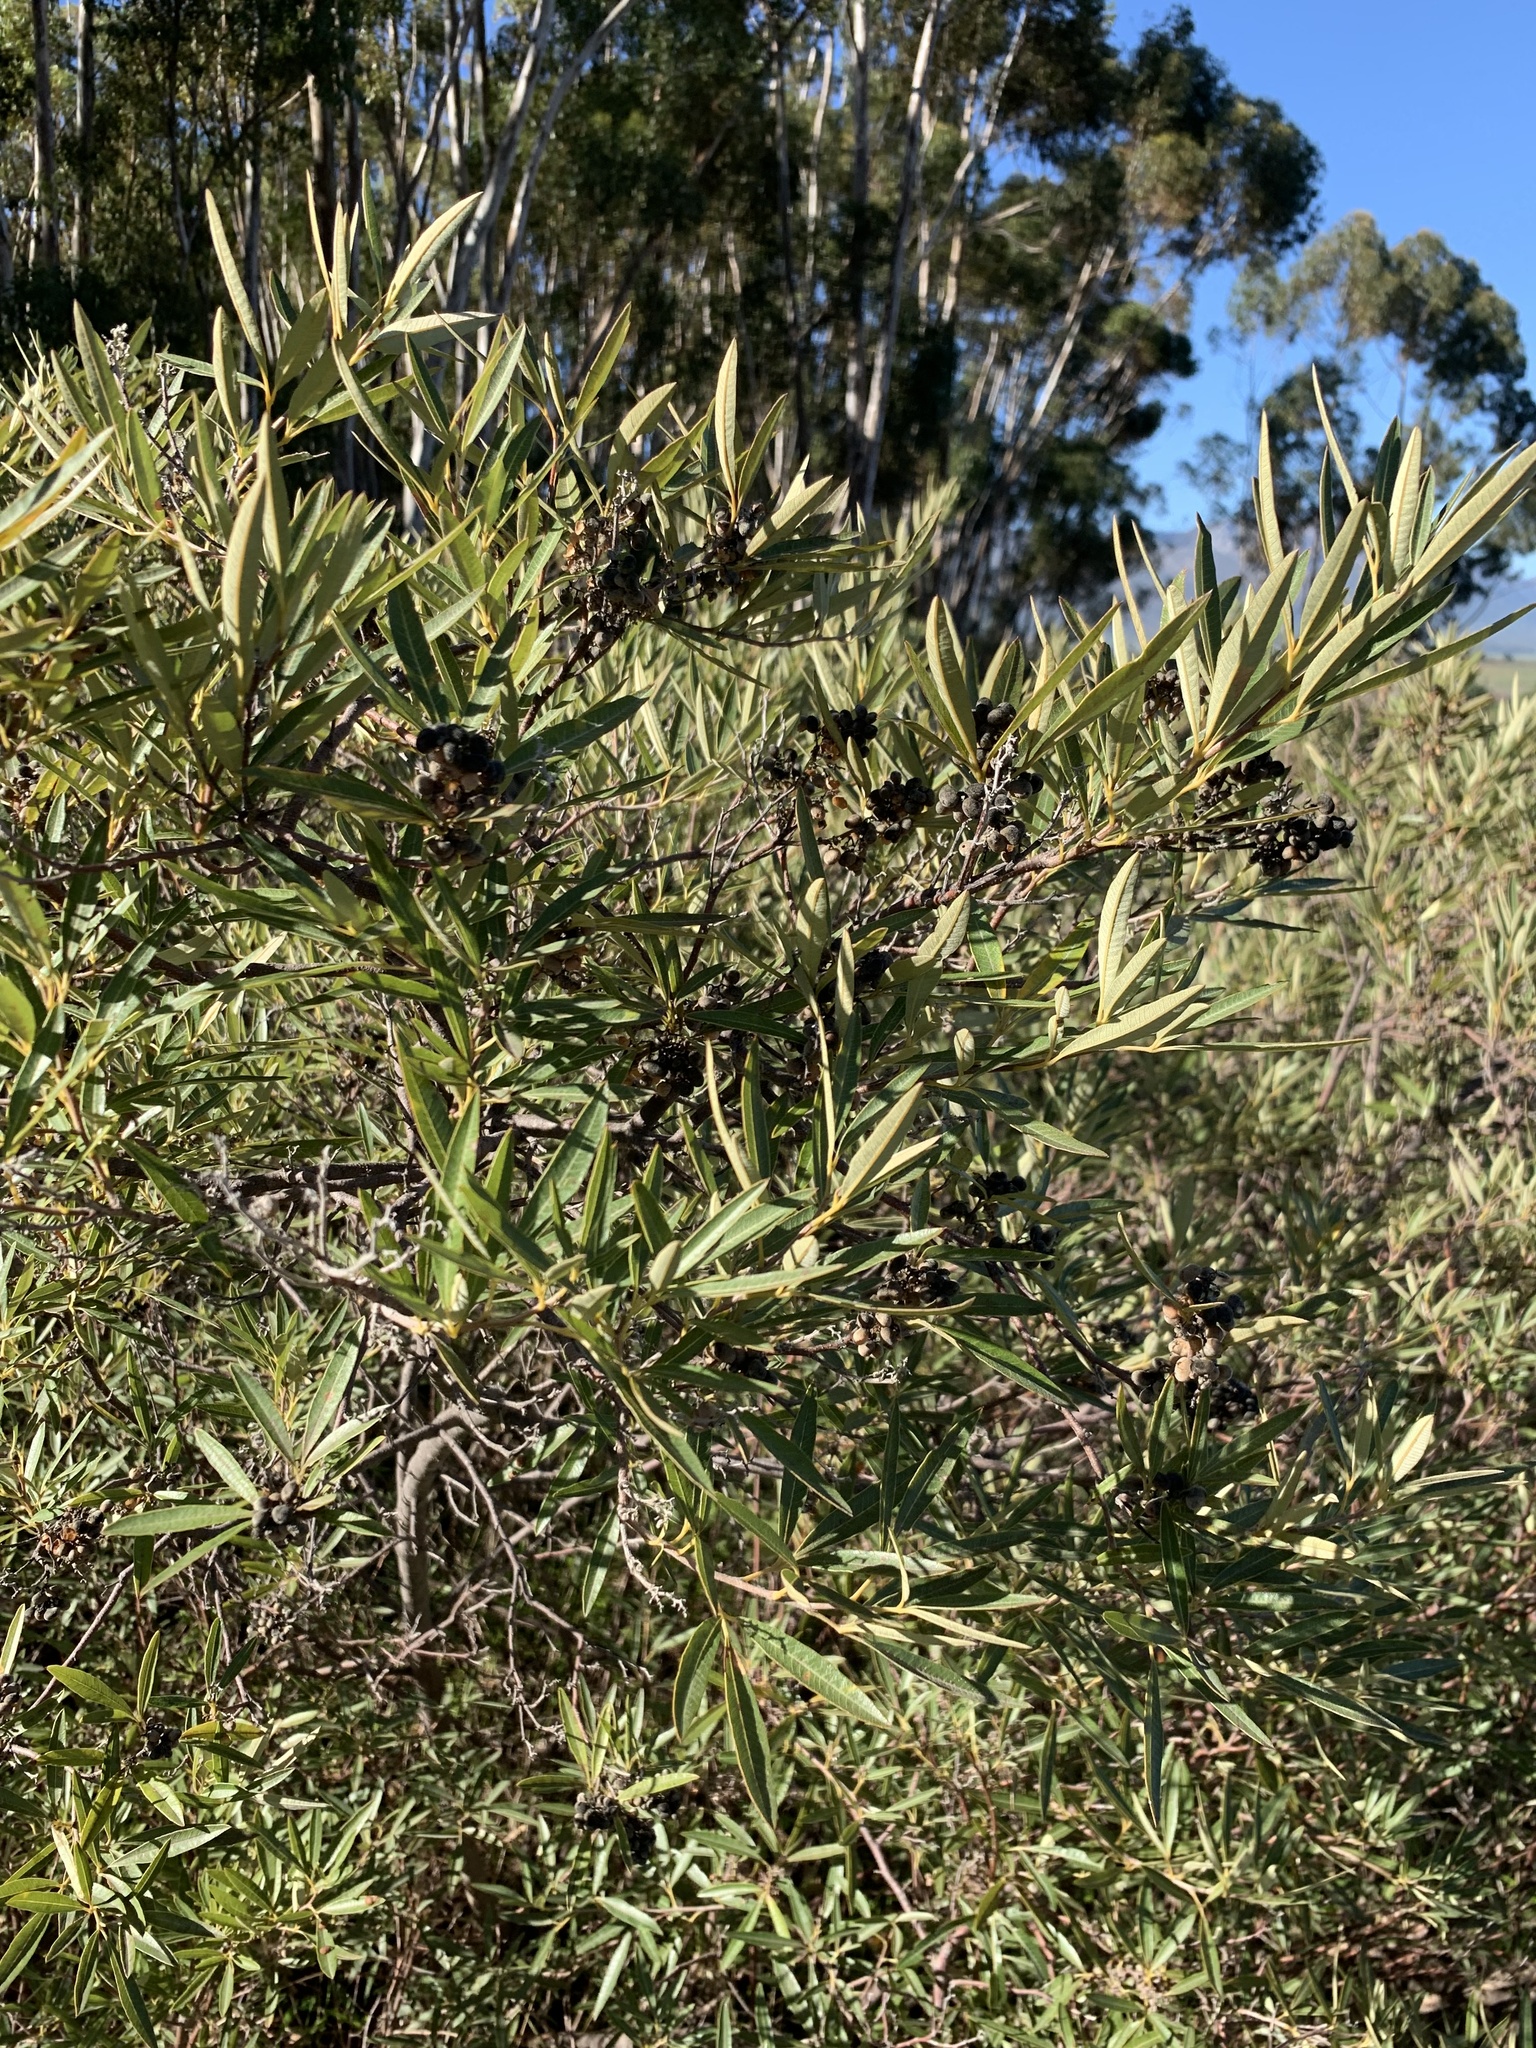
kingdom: Plantae
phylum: Tracheophyta
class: Magnoliopsida
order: Sapindales
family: Anacardiaceae
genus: Searsia
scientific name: Searsia angustifolia
